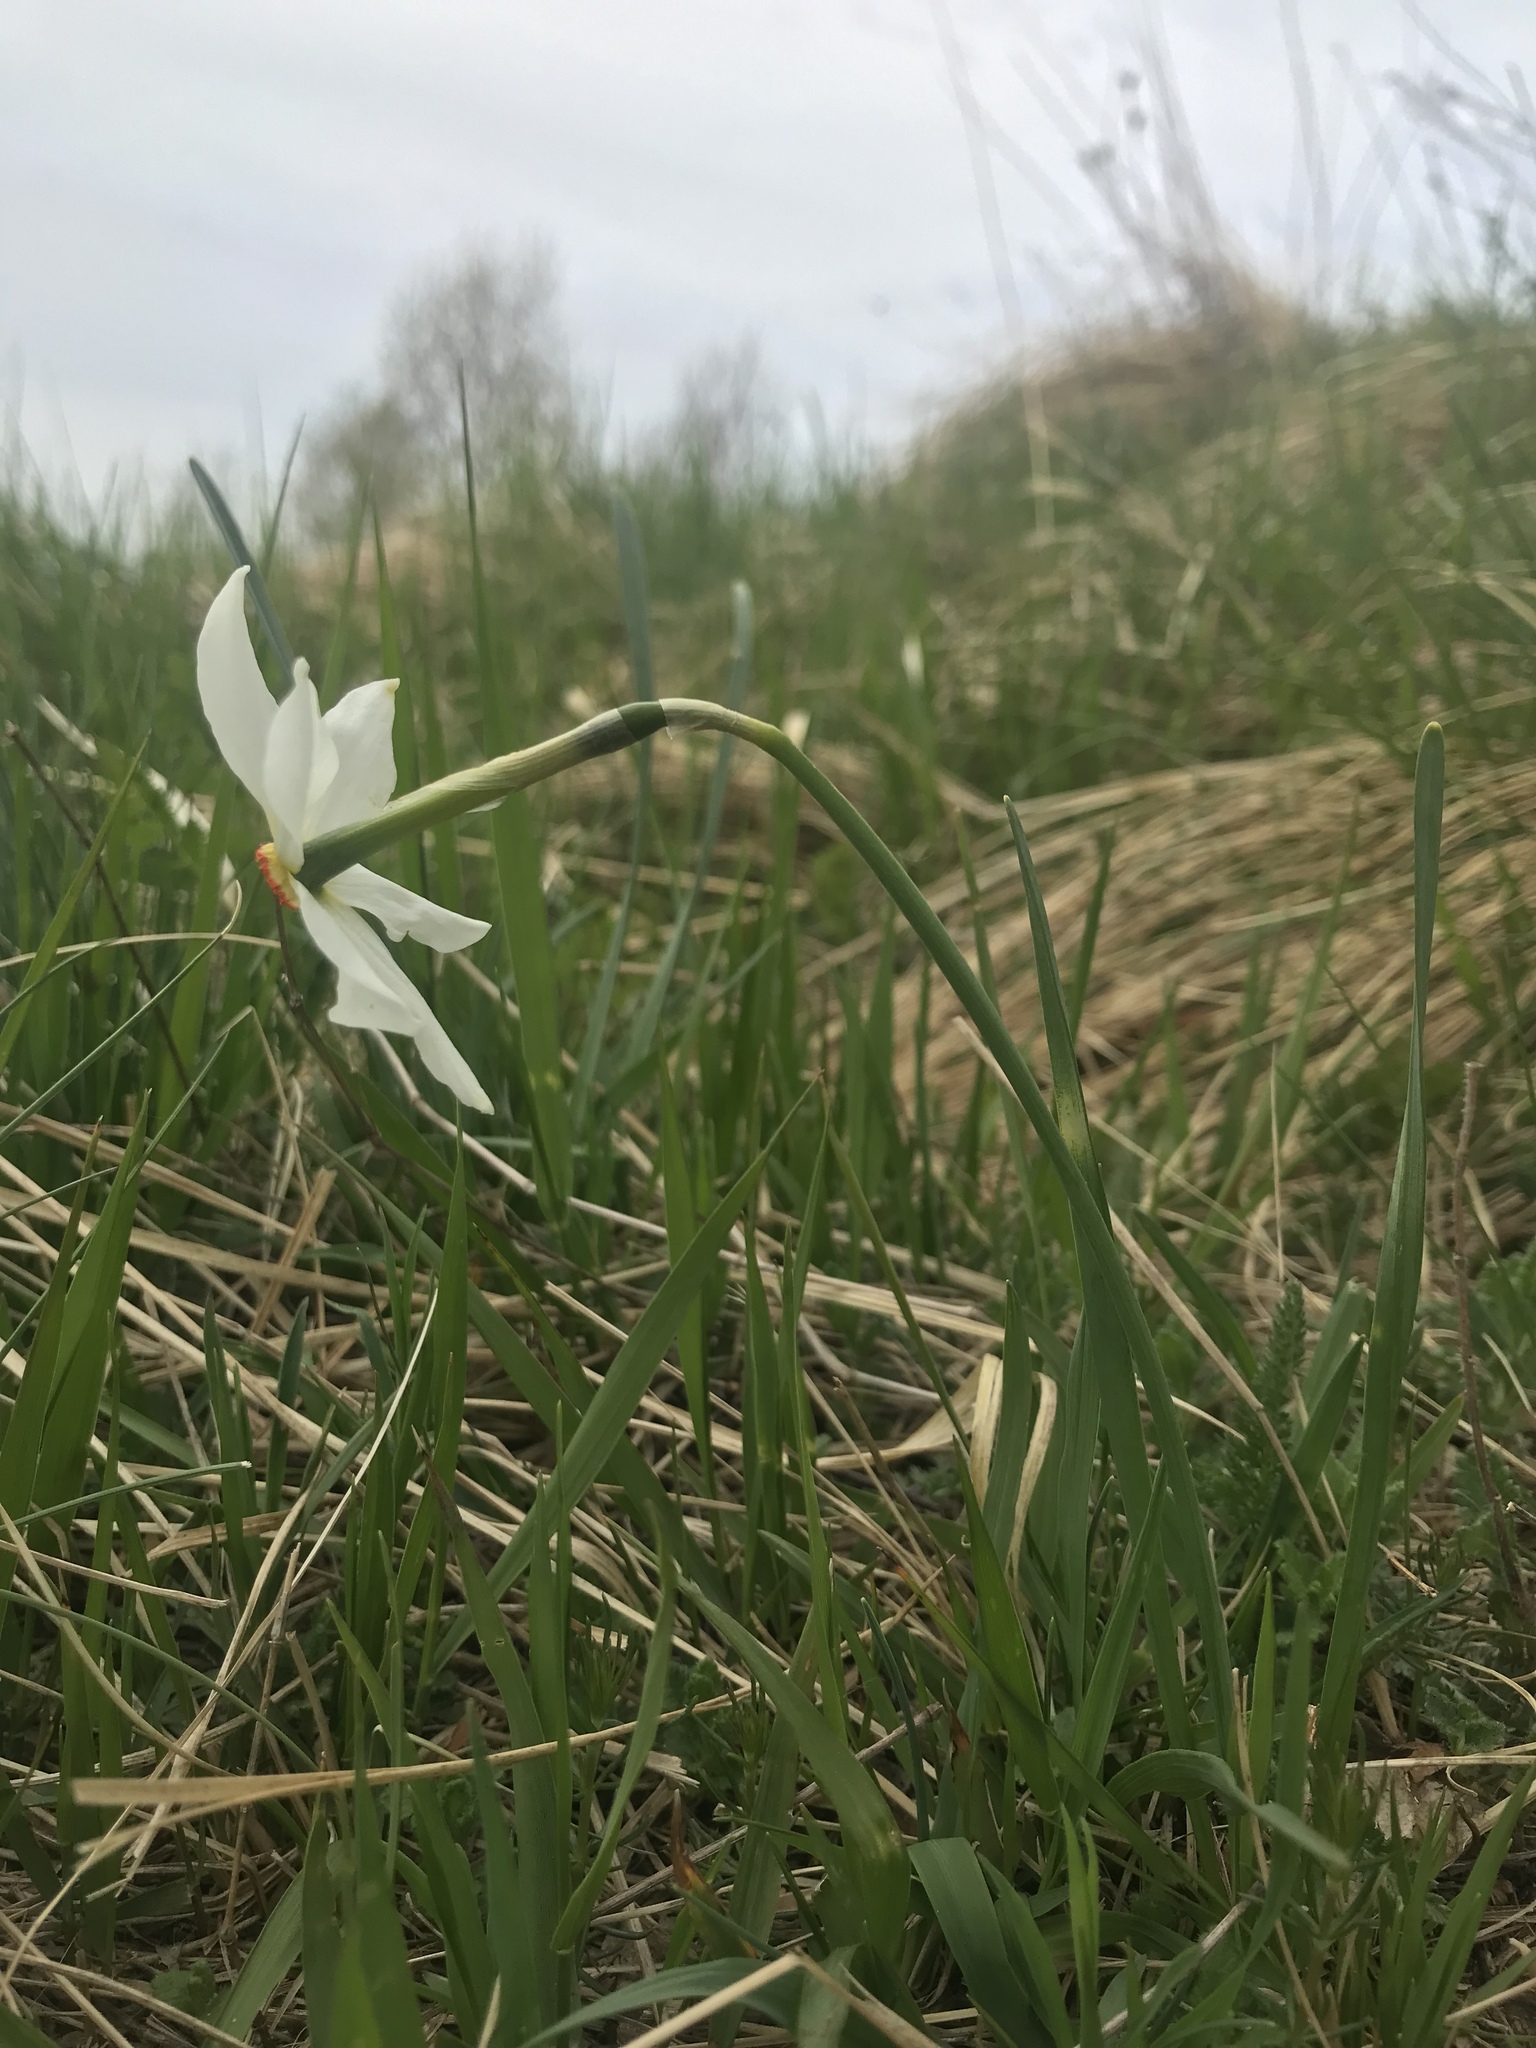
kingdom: Plantae
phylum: Tracheophyta
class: Liliopsida
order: Asparagales
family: Amaryllidaceae
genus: Narcissus
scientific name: Narcissus poeticus
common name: Pheasant's-eye daffodil
